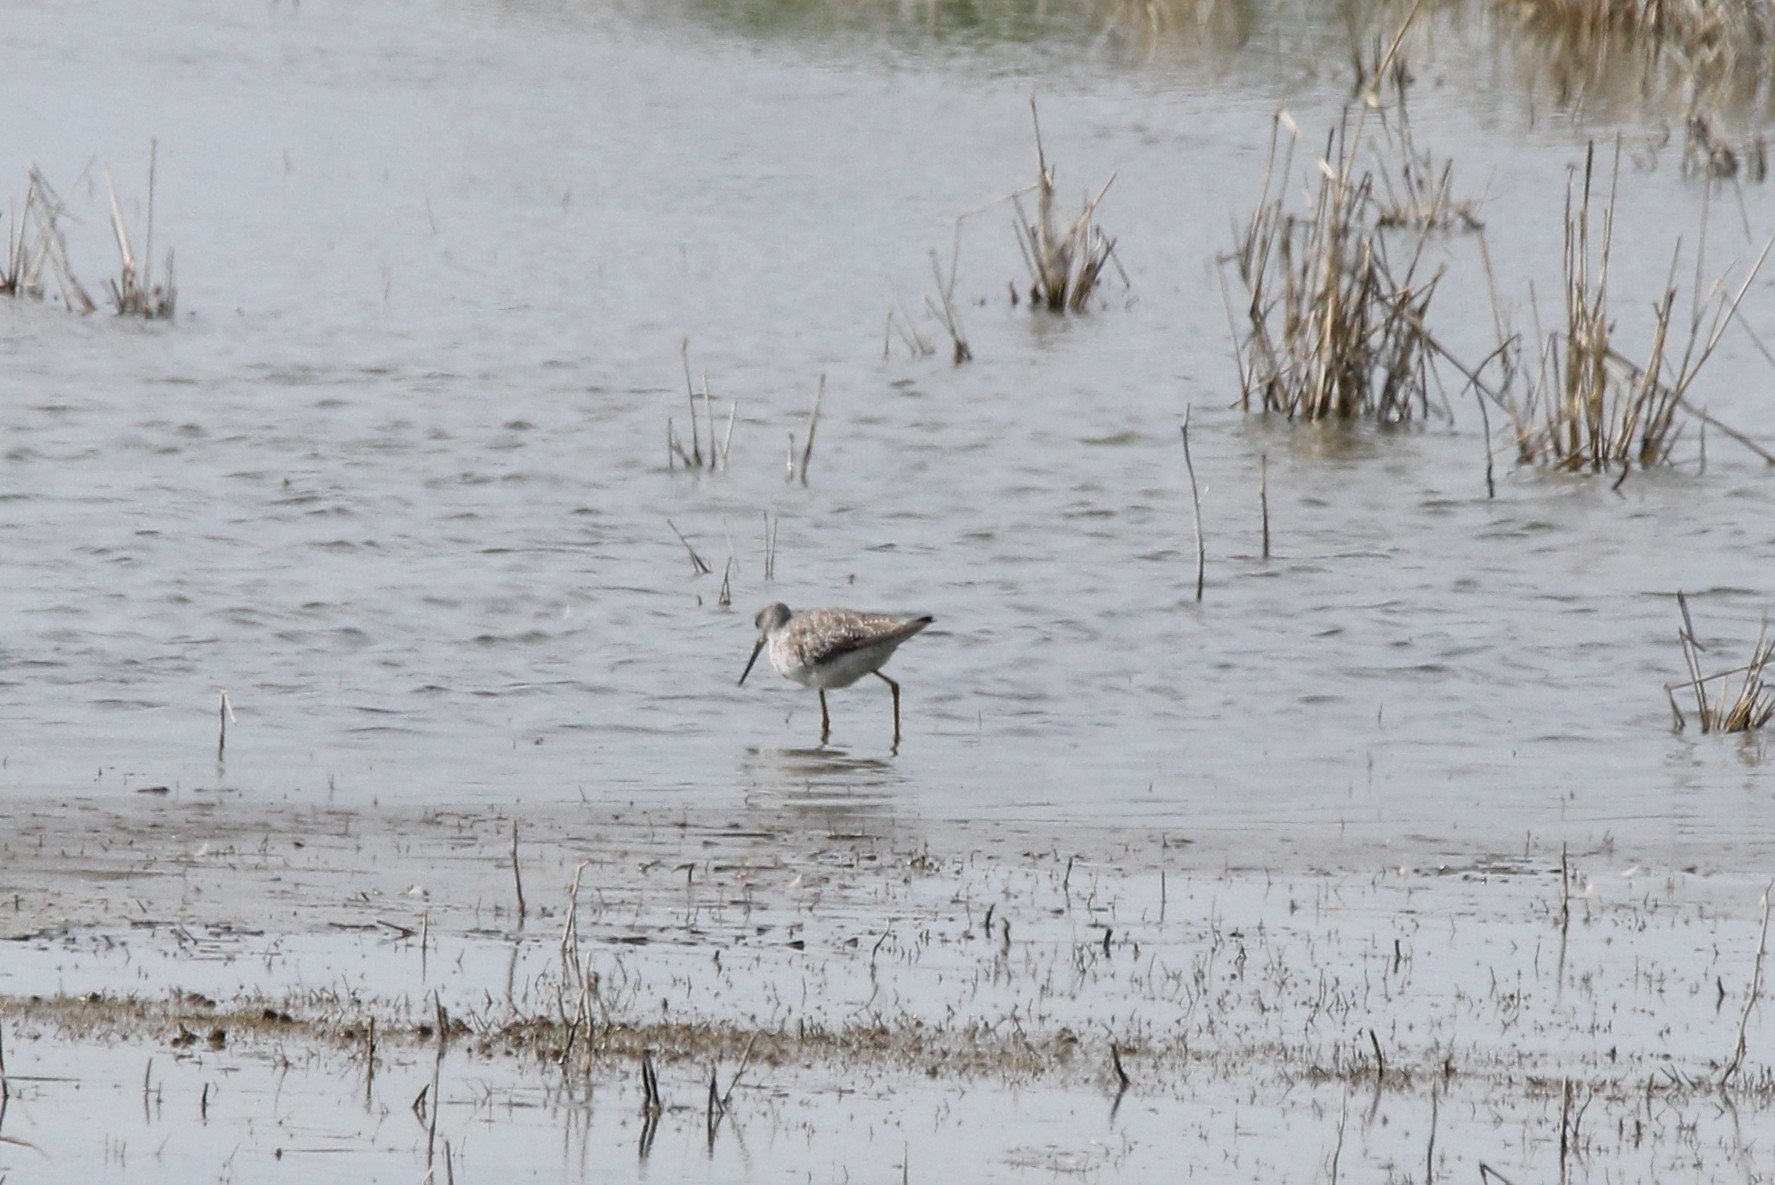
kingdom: Animalia
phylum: Chordata
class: Aves
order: Charadriiformes
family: Scolopacidae
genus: Tringa
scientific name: Tringa melanoleuca
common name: Greater yellowlegs
